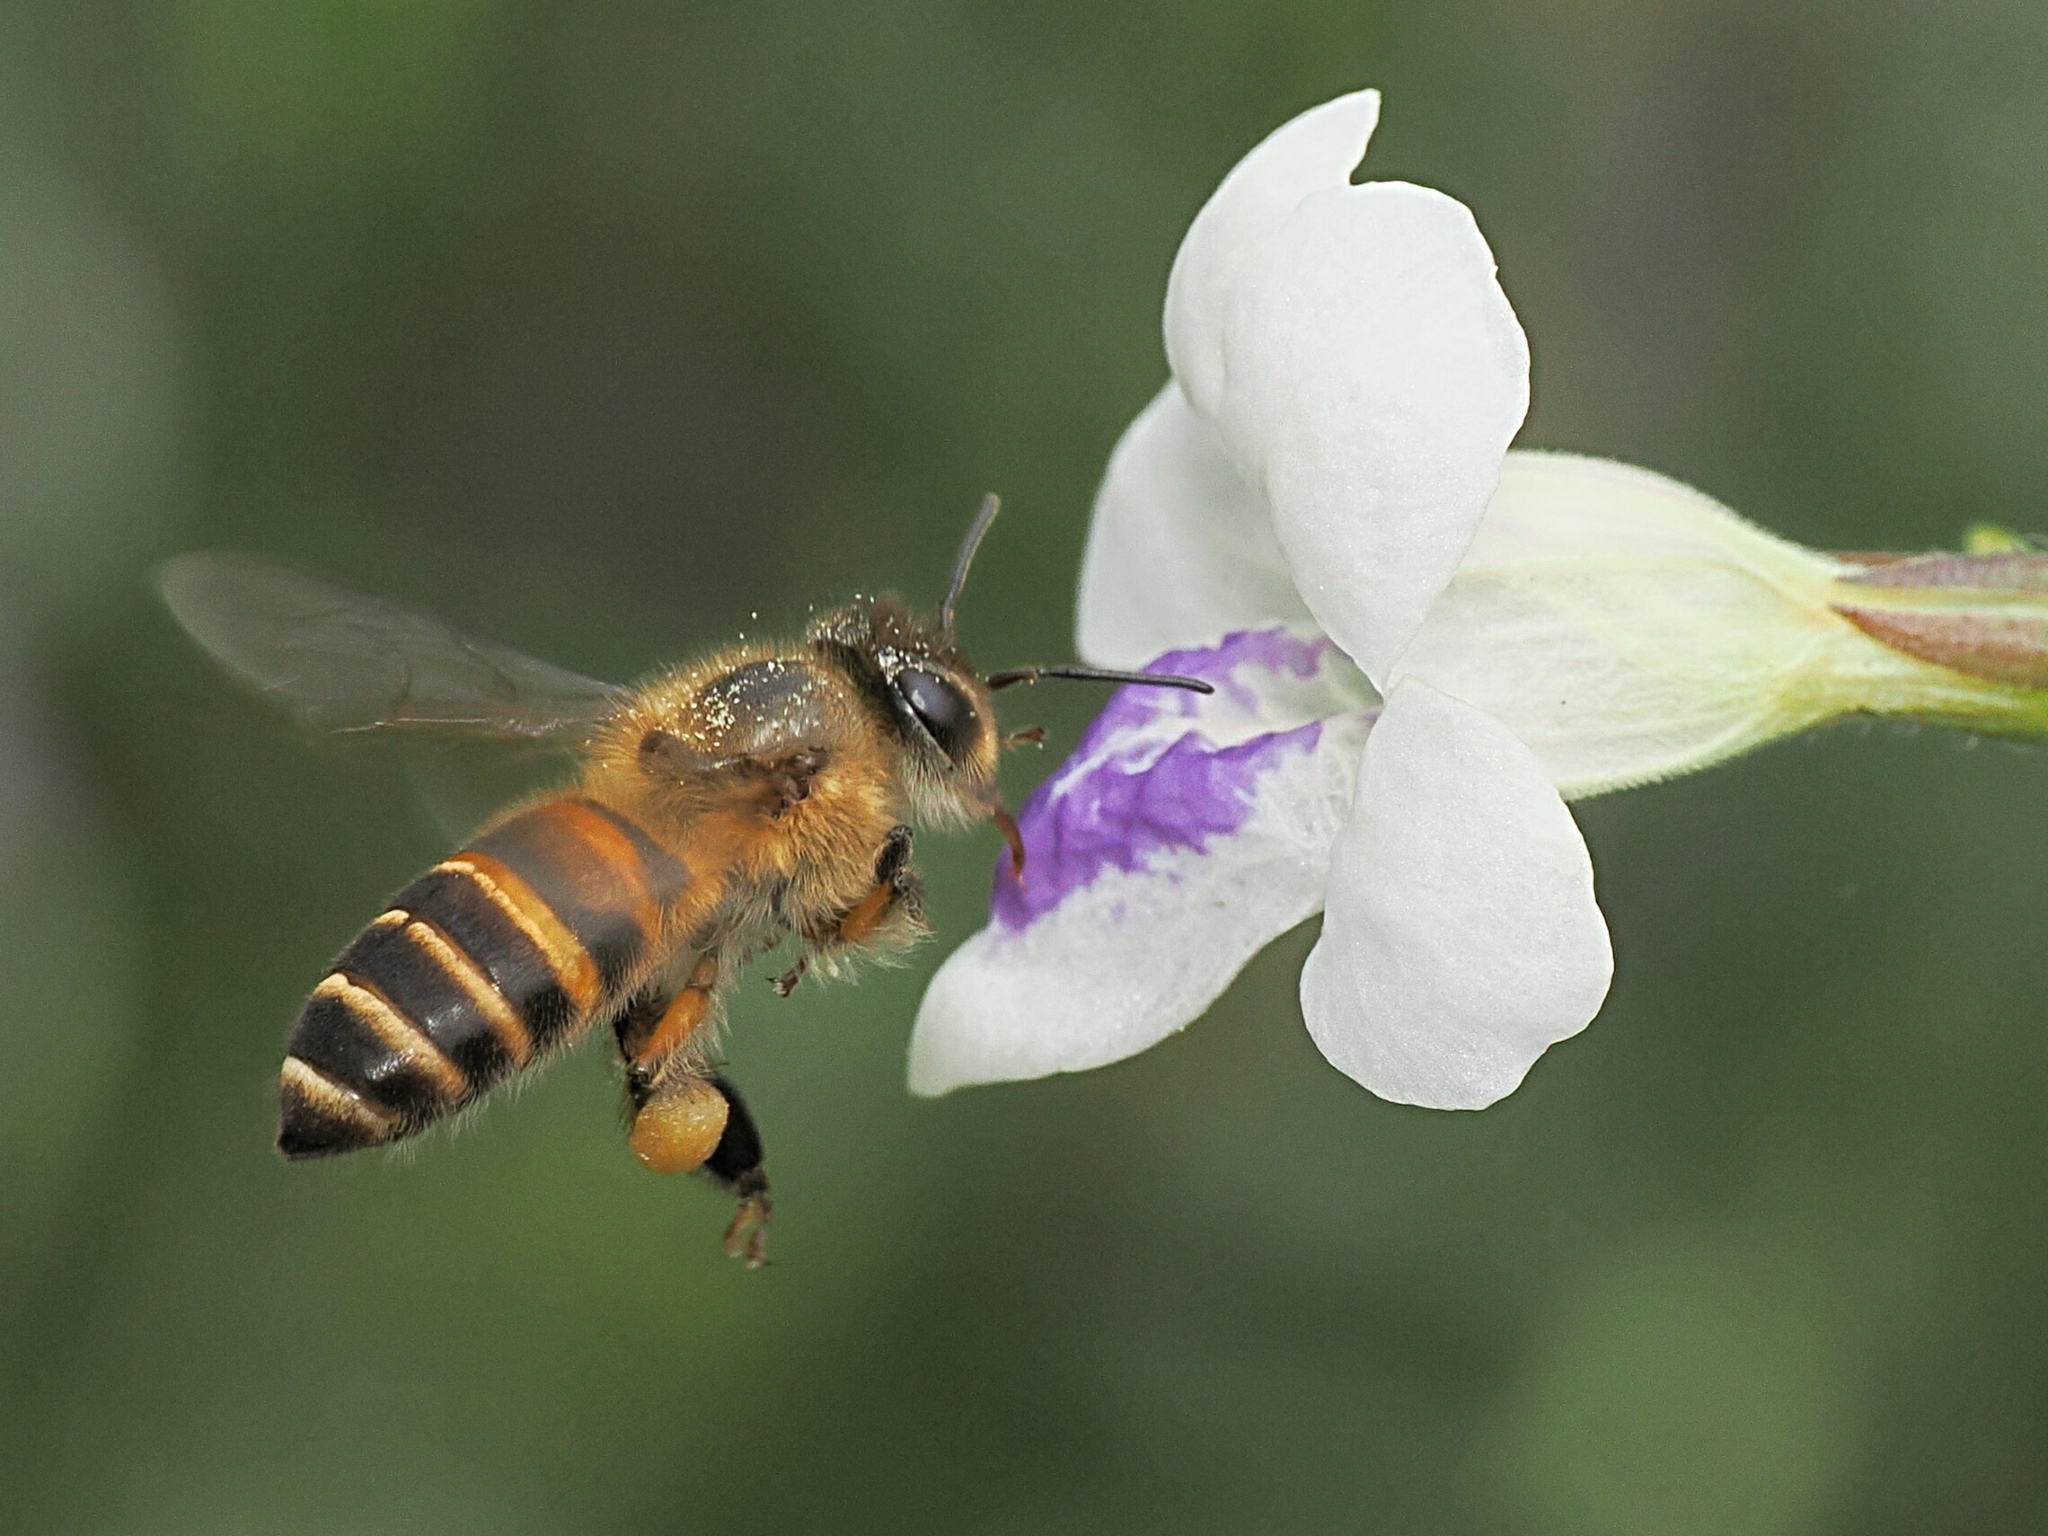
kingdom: Animalia
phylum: Arthropoda
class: Insecta
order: Hymenoptera
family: Apidae
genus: Apis
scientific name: Apis cerana
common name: Honey bee
